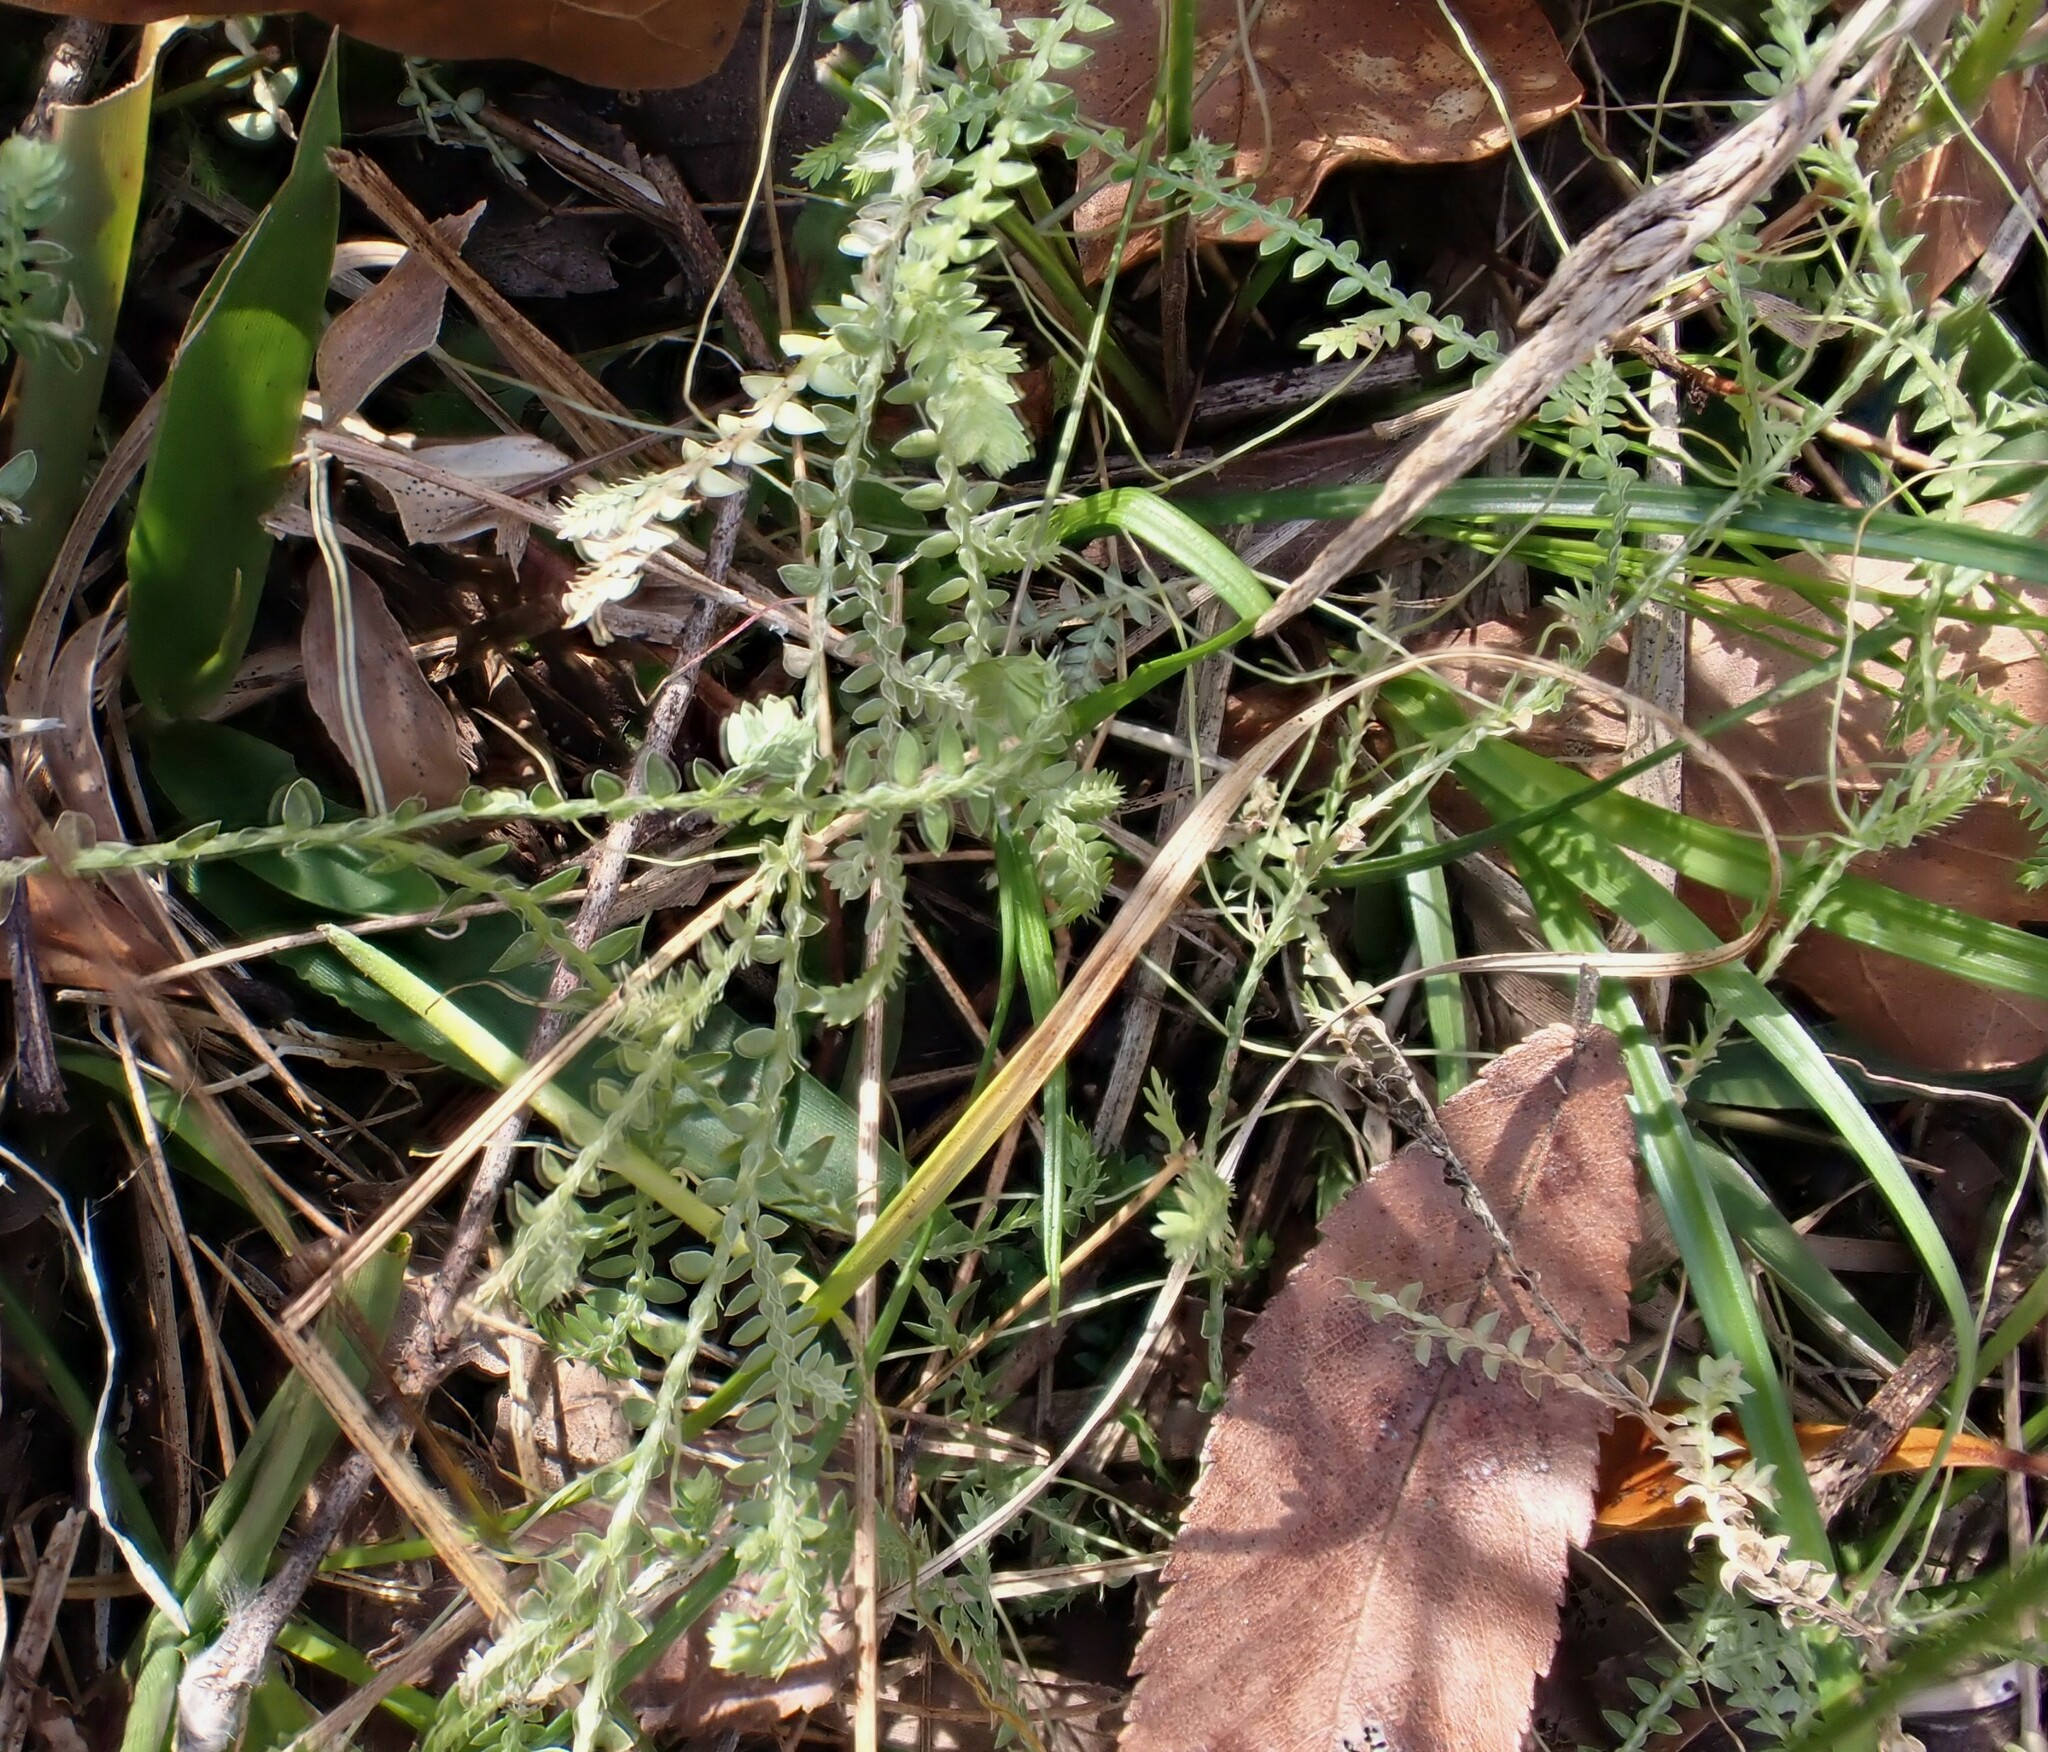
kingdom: Plantae
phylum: Tracheophyta
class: Lycopodiopsida
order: Selaginellales
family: Selaginellaceae
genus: Selaginella
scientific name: Selaginella ludoviciana
